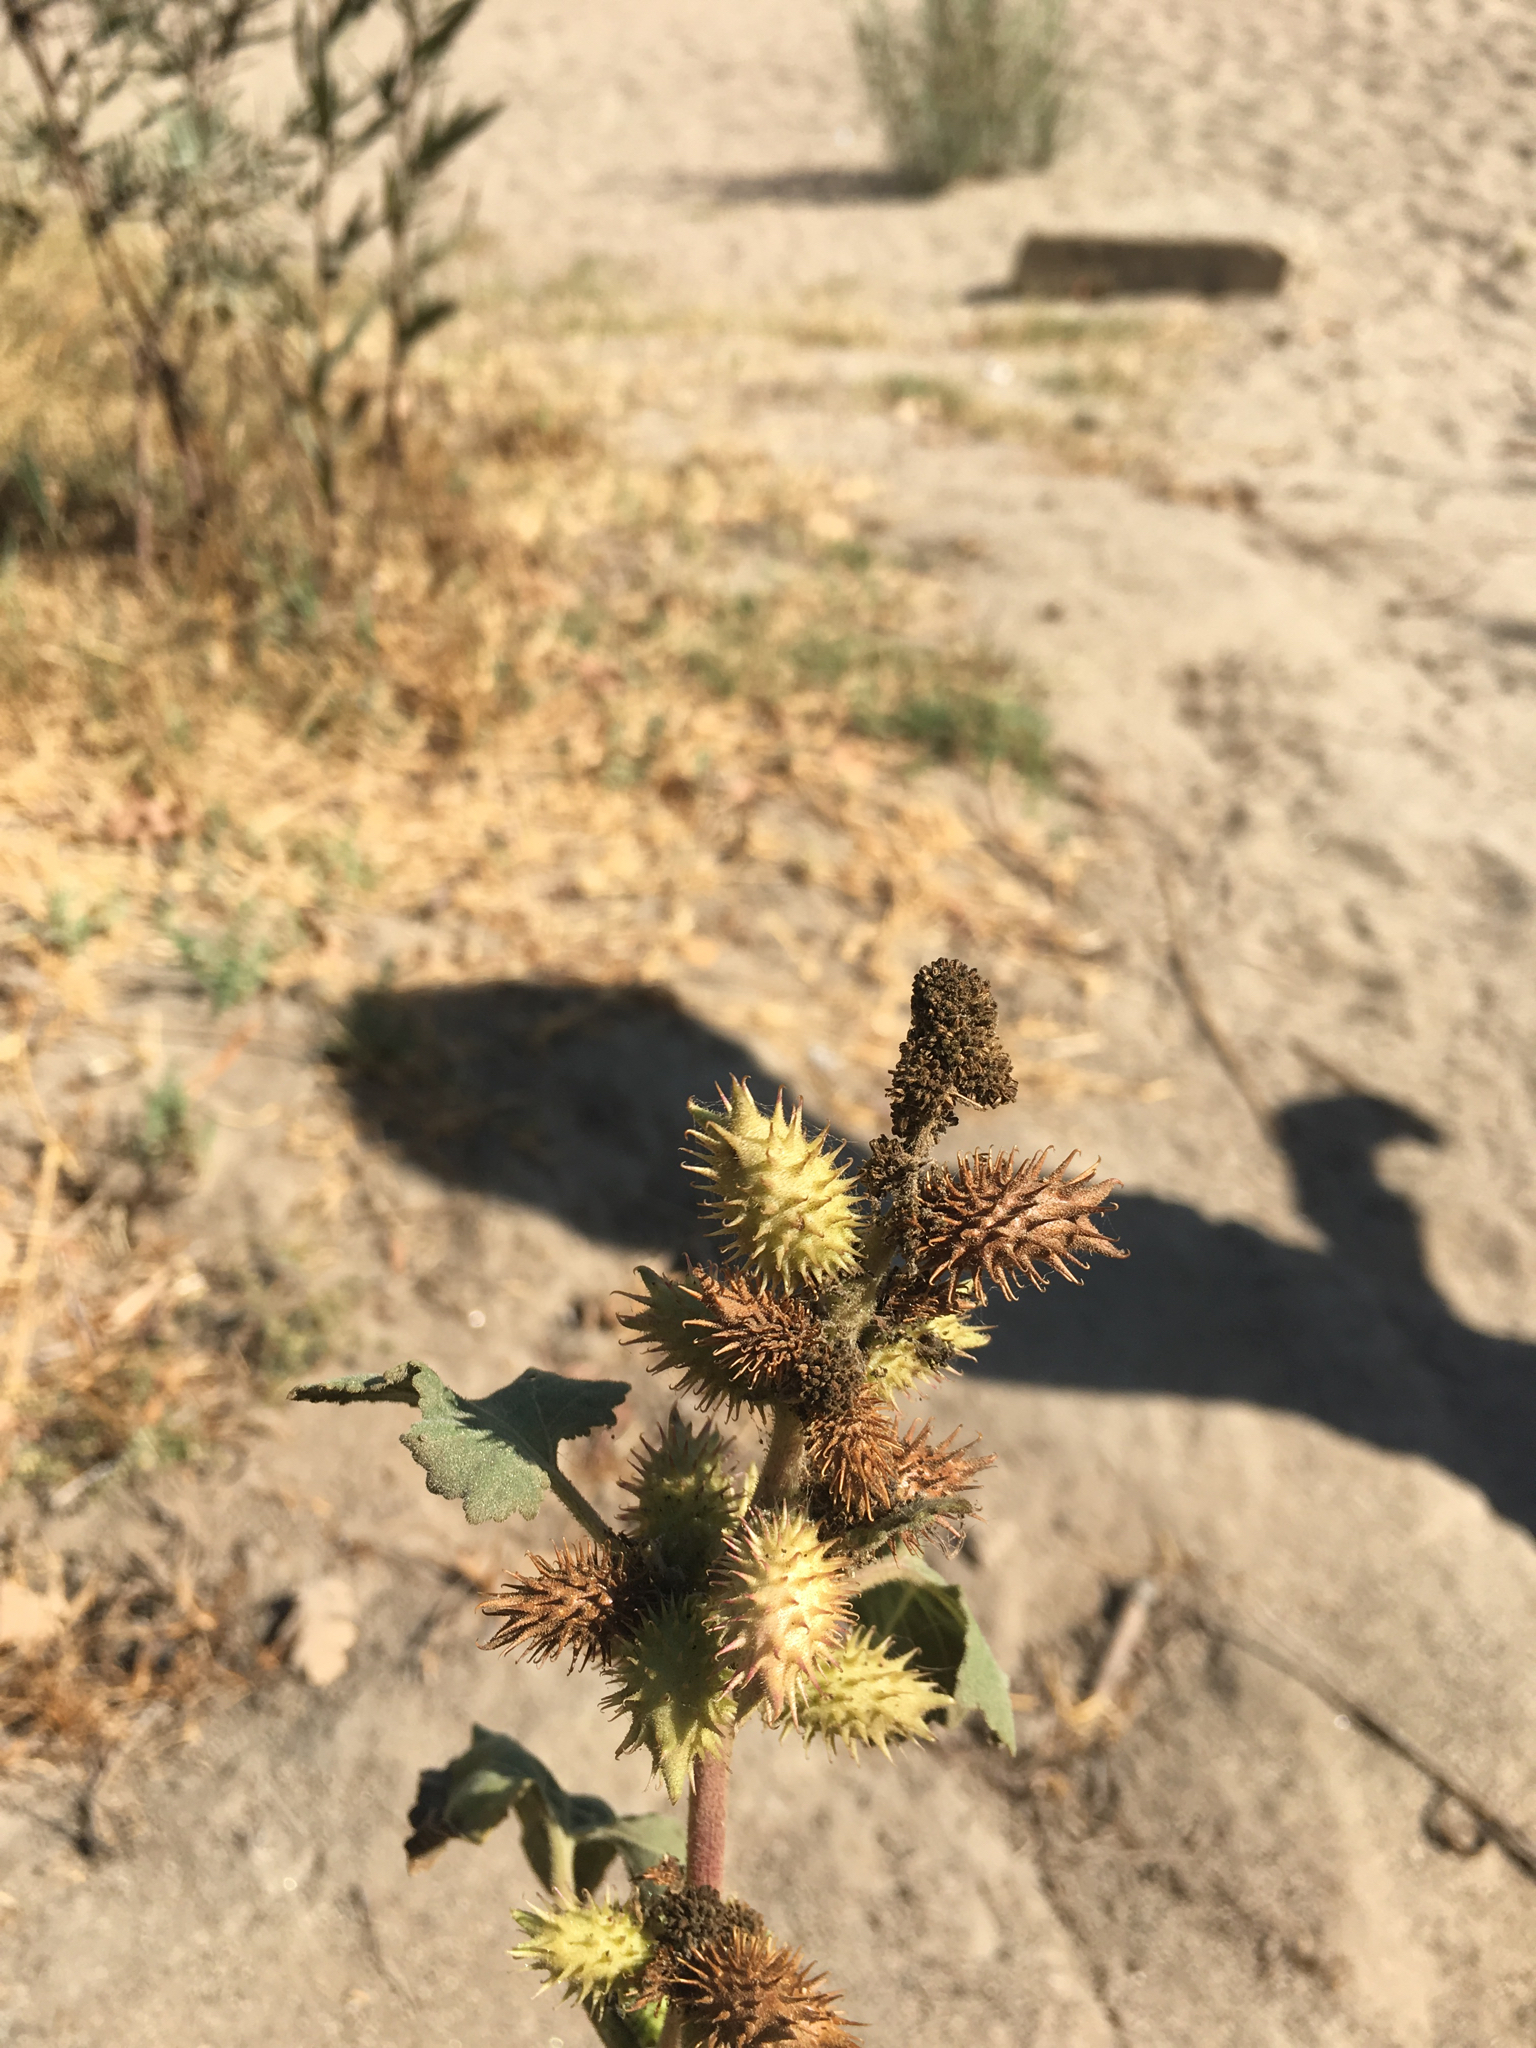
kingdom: Plantae
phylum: Tracheophyta
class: Magnoliopsida
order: Asterales
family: Asteraceae
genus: Xanthium
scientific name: Xanthium strumarium
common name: Rough cocklebur
